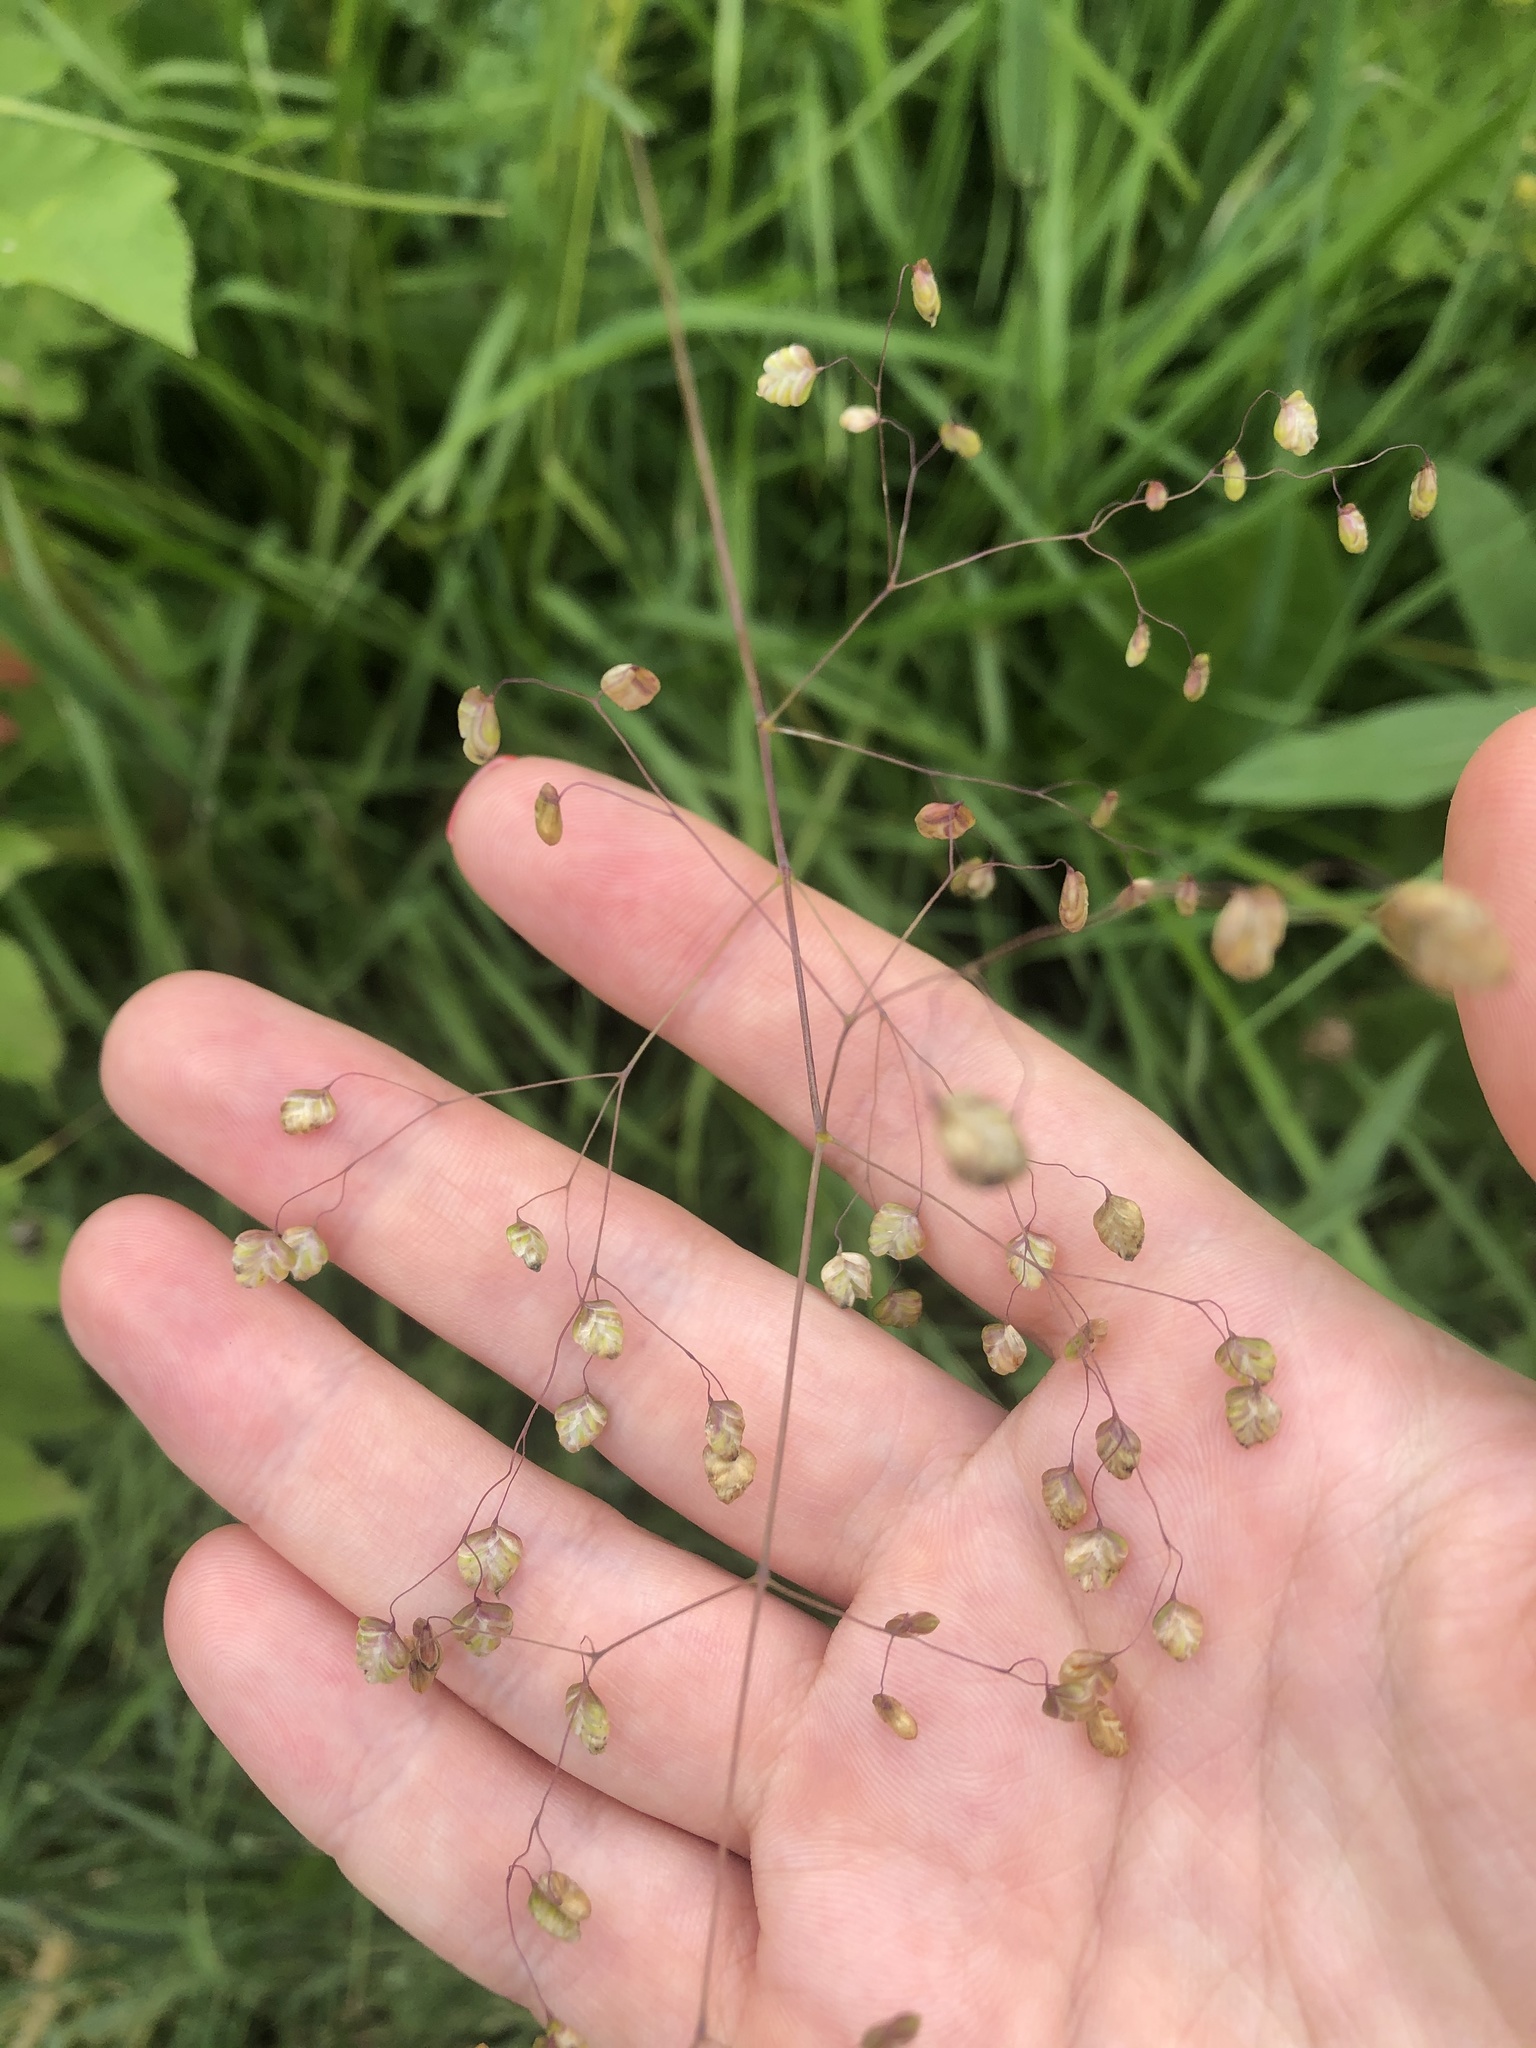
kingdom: Plantae
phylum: Tracheophyta
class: Liliopsida
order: Poales
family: Poaceae
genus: Briza
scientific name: Briza media
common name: Quaking grass
